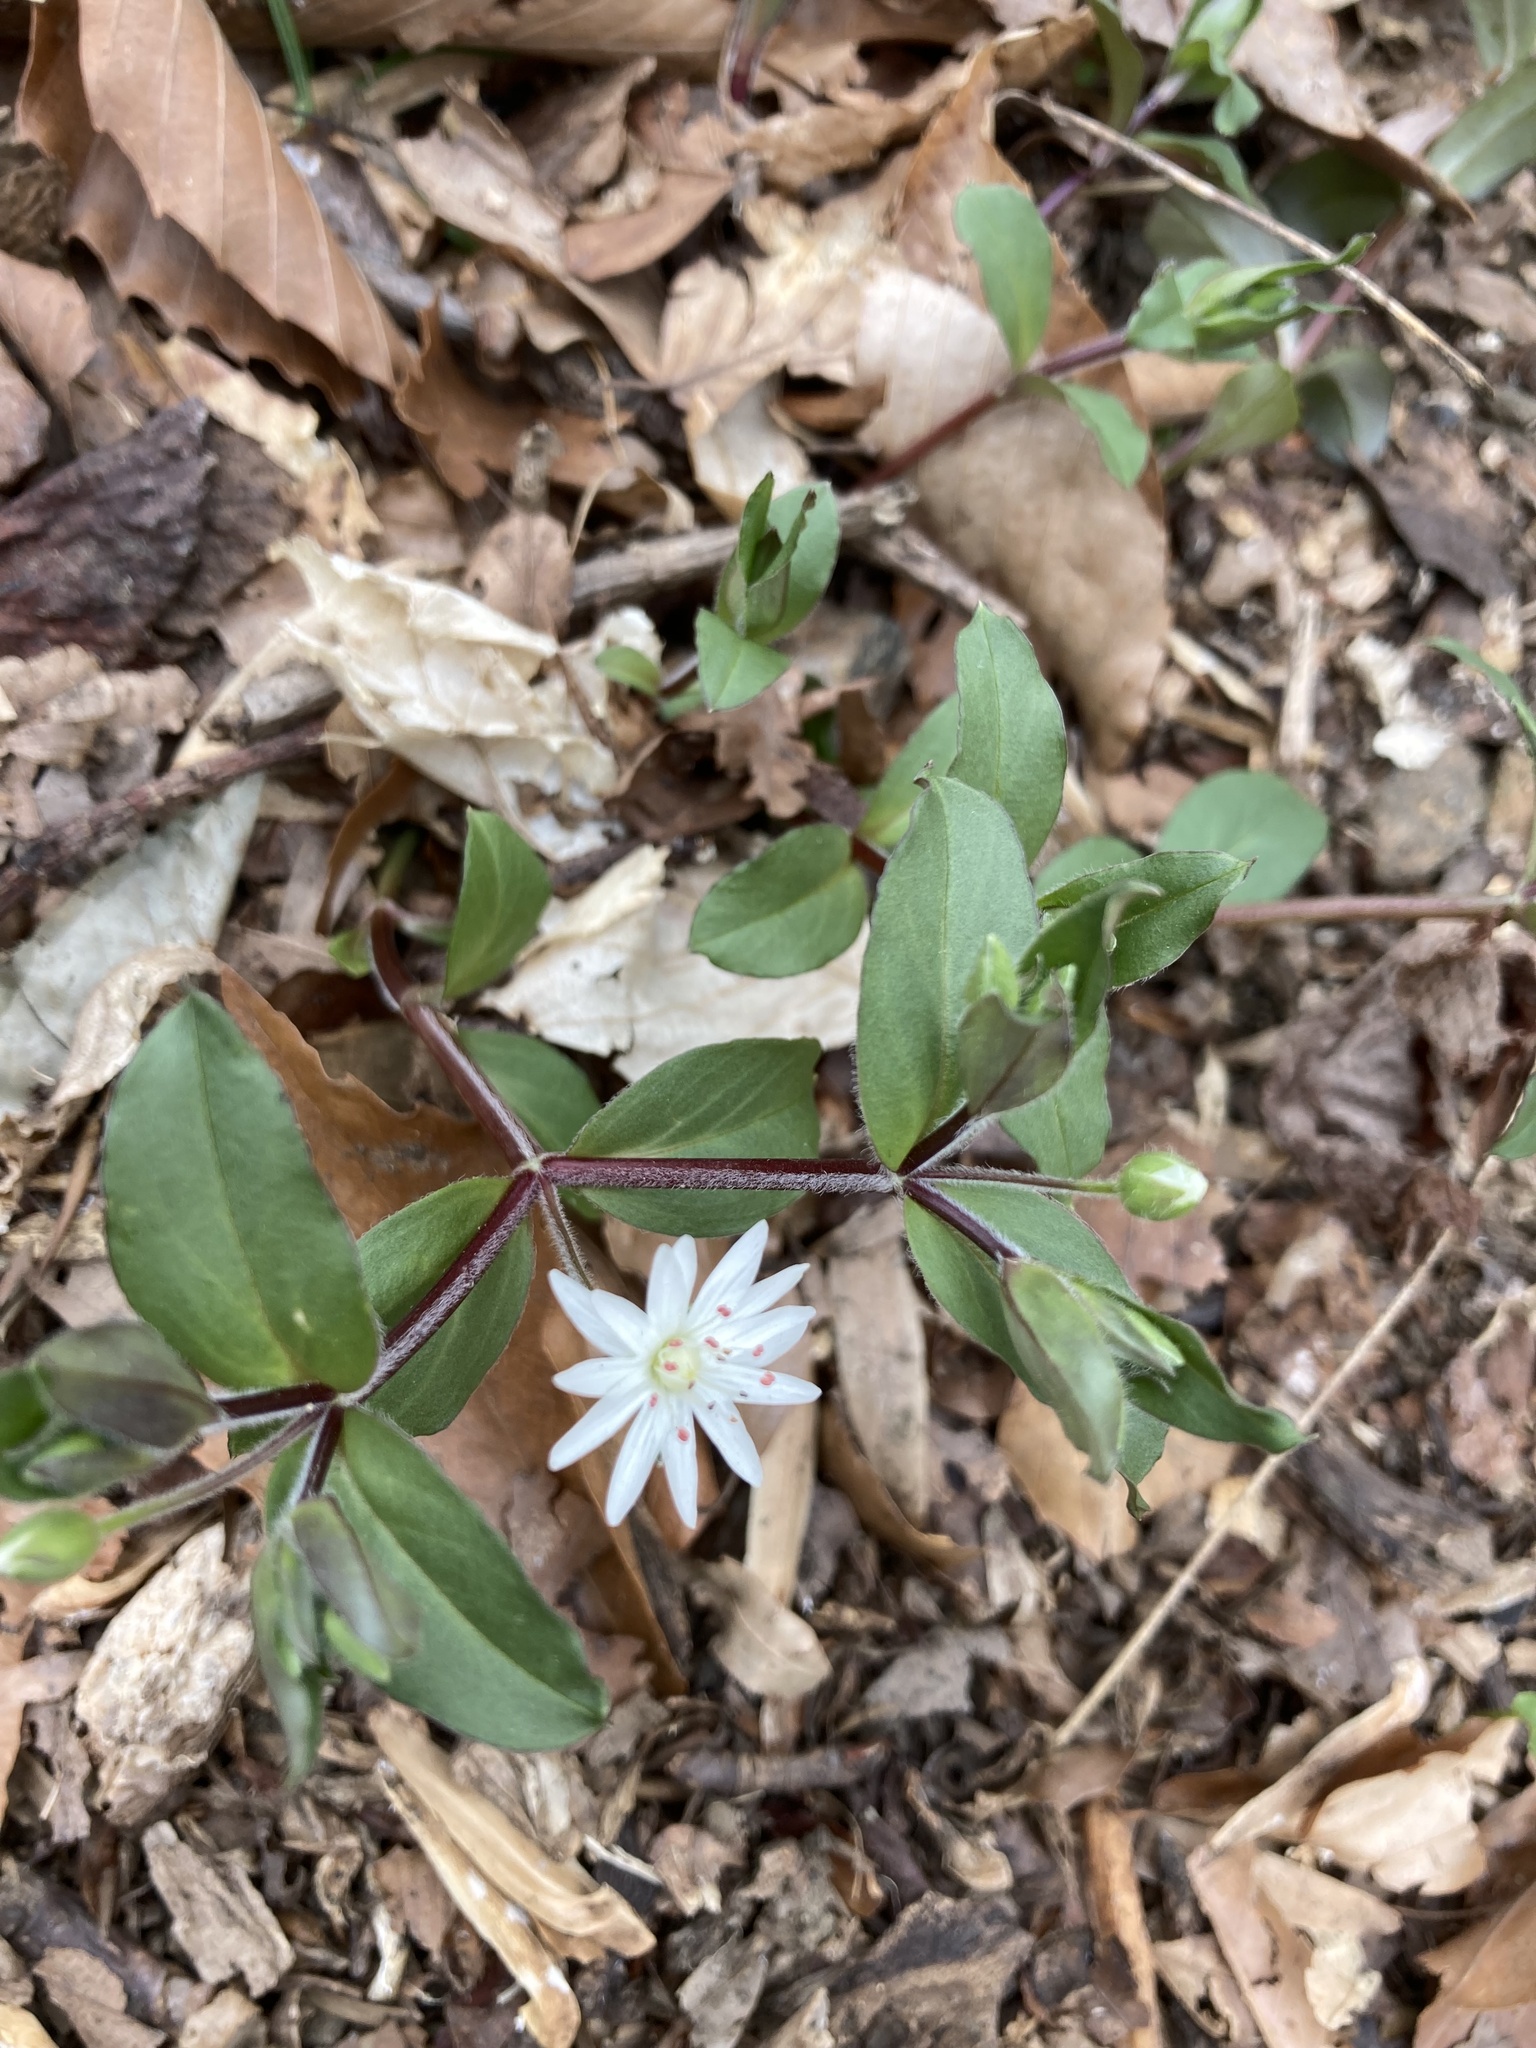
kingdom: Plantae
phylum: Tracheophyta
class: Magnoliopsida
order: Caryophyllales
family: Caryophyllaceae
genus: Stellaria
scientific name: Stellaria pubera
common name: Star chickweed
